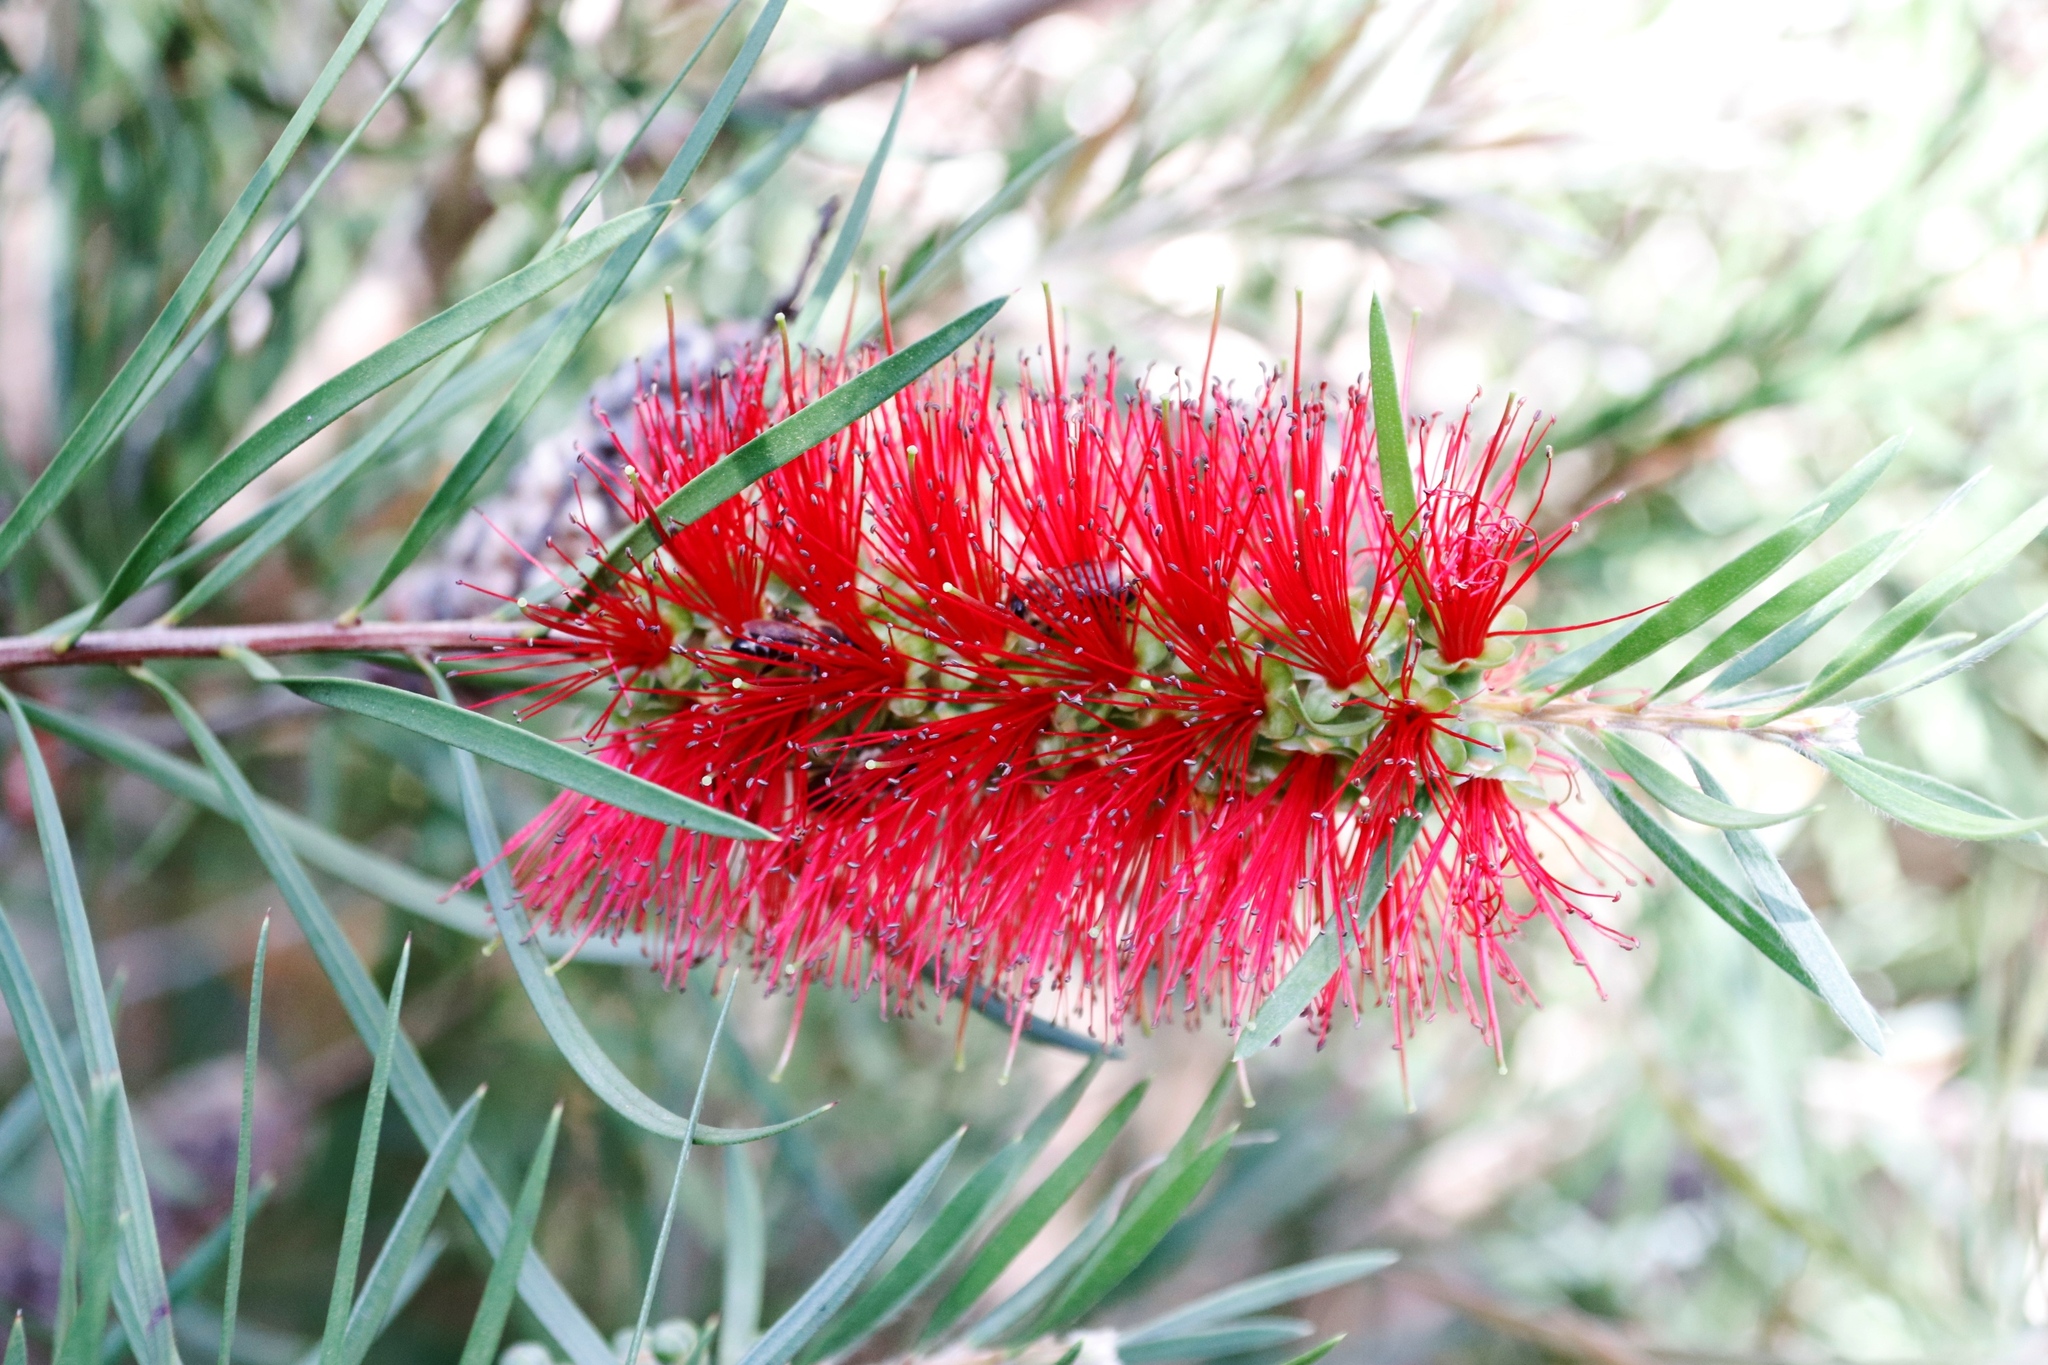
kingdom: Plantae
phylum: Tracheophyta
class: Magnoliopsida
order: Myrtales
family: Myrtaceae
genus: Callistemon
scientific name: Callistemon linearis
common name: Narrow-leaf bottlebrush
